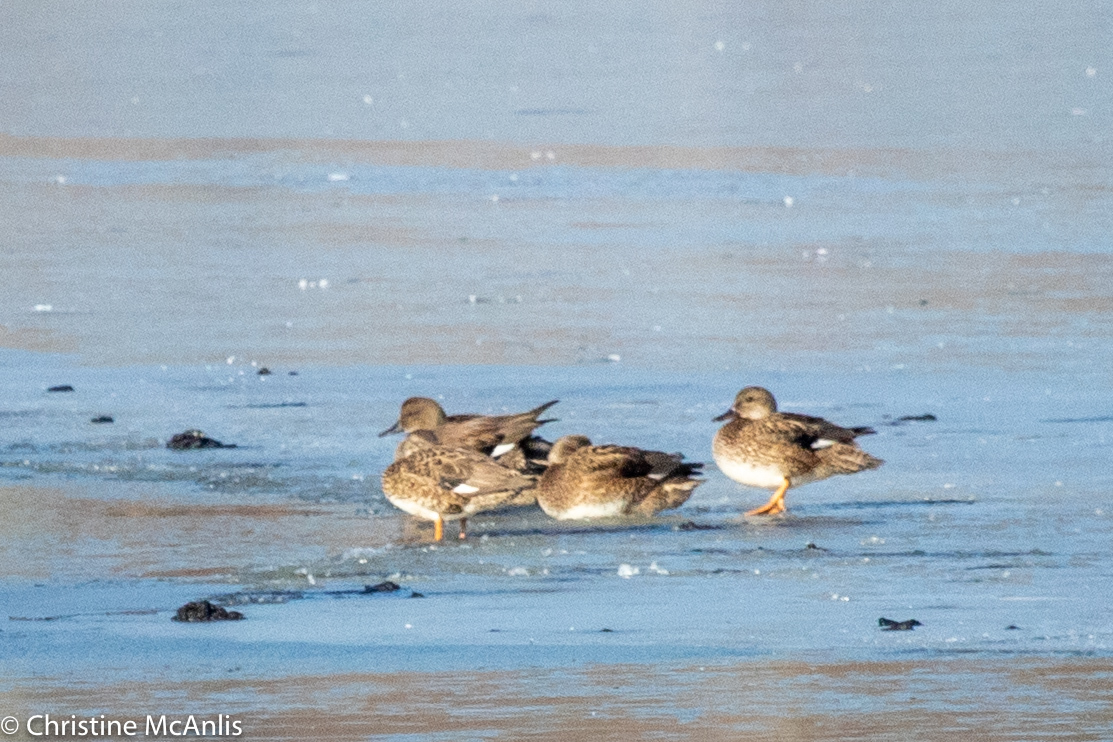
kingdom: Animalia
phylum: Chordata
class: Aves
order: Anseriformes
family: Anatidae
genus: Mareca
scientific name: Mareca strepera
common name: Gadwall
